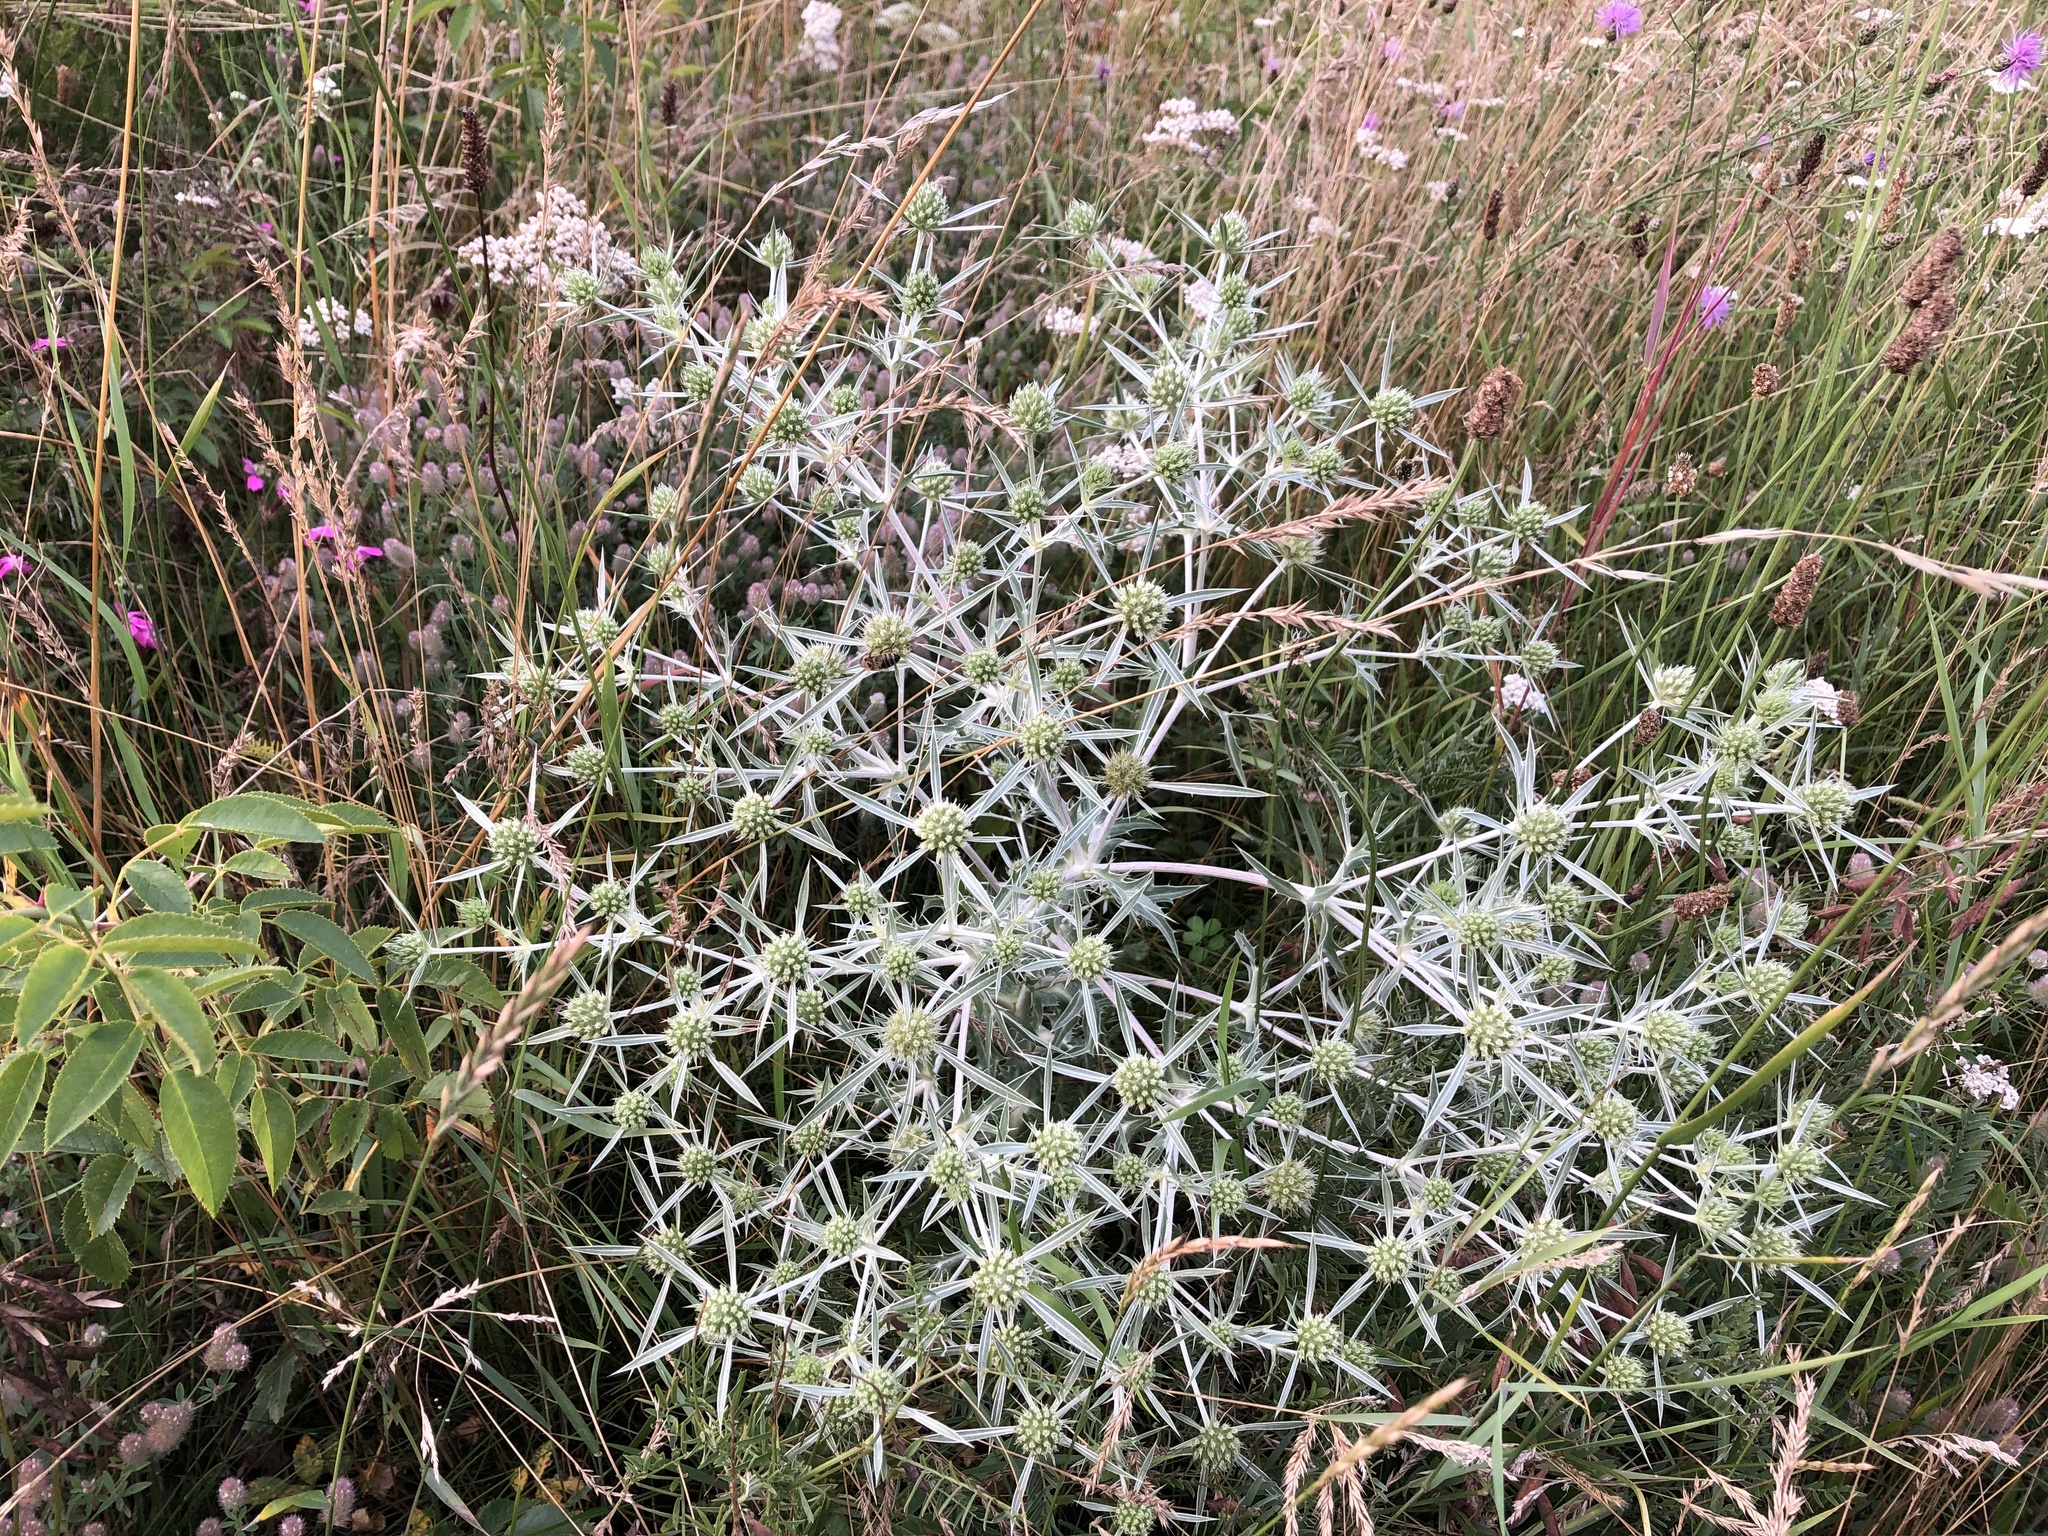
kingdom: Plantae
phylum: Tracheophyta
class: Magnoliopsida
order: Apiales
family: Apiaceae
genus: Eryngium
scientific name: Eryngium campestre
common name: Field eryngo
